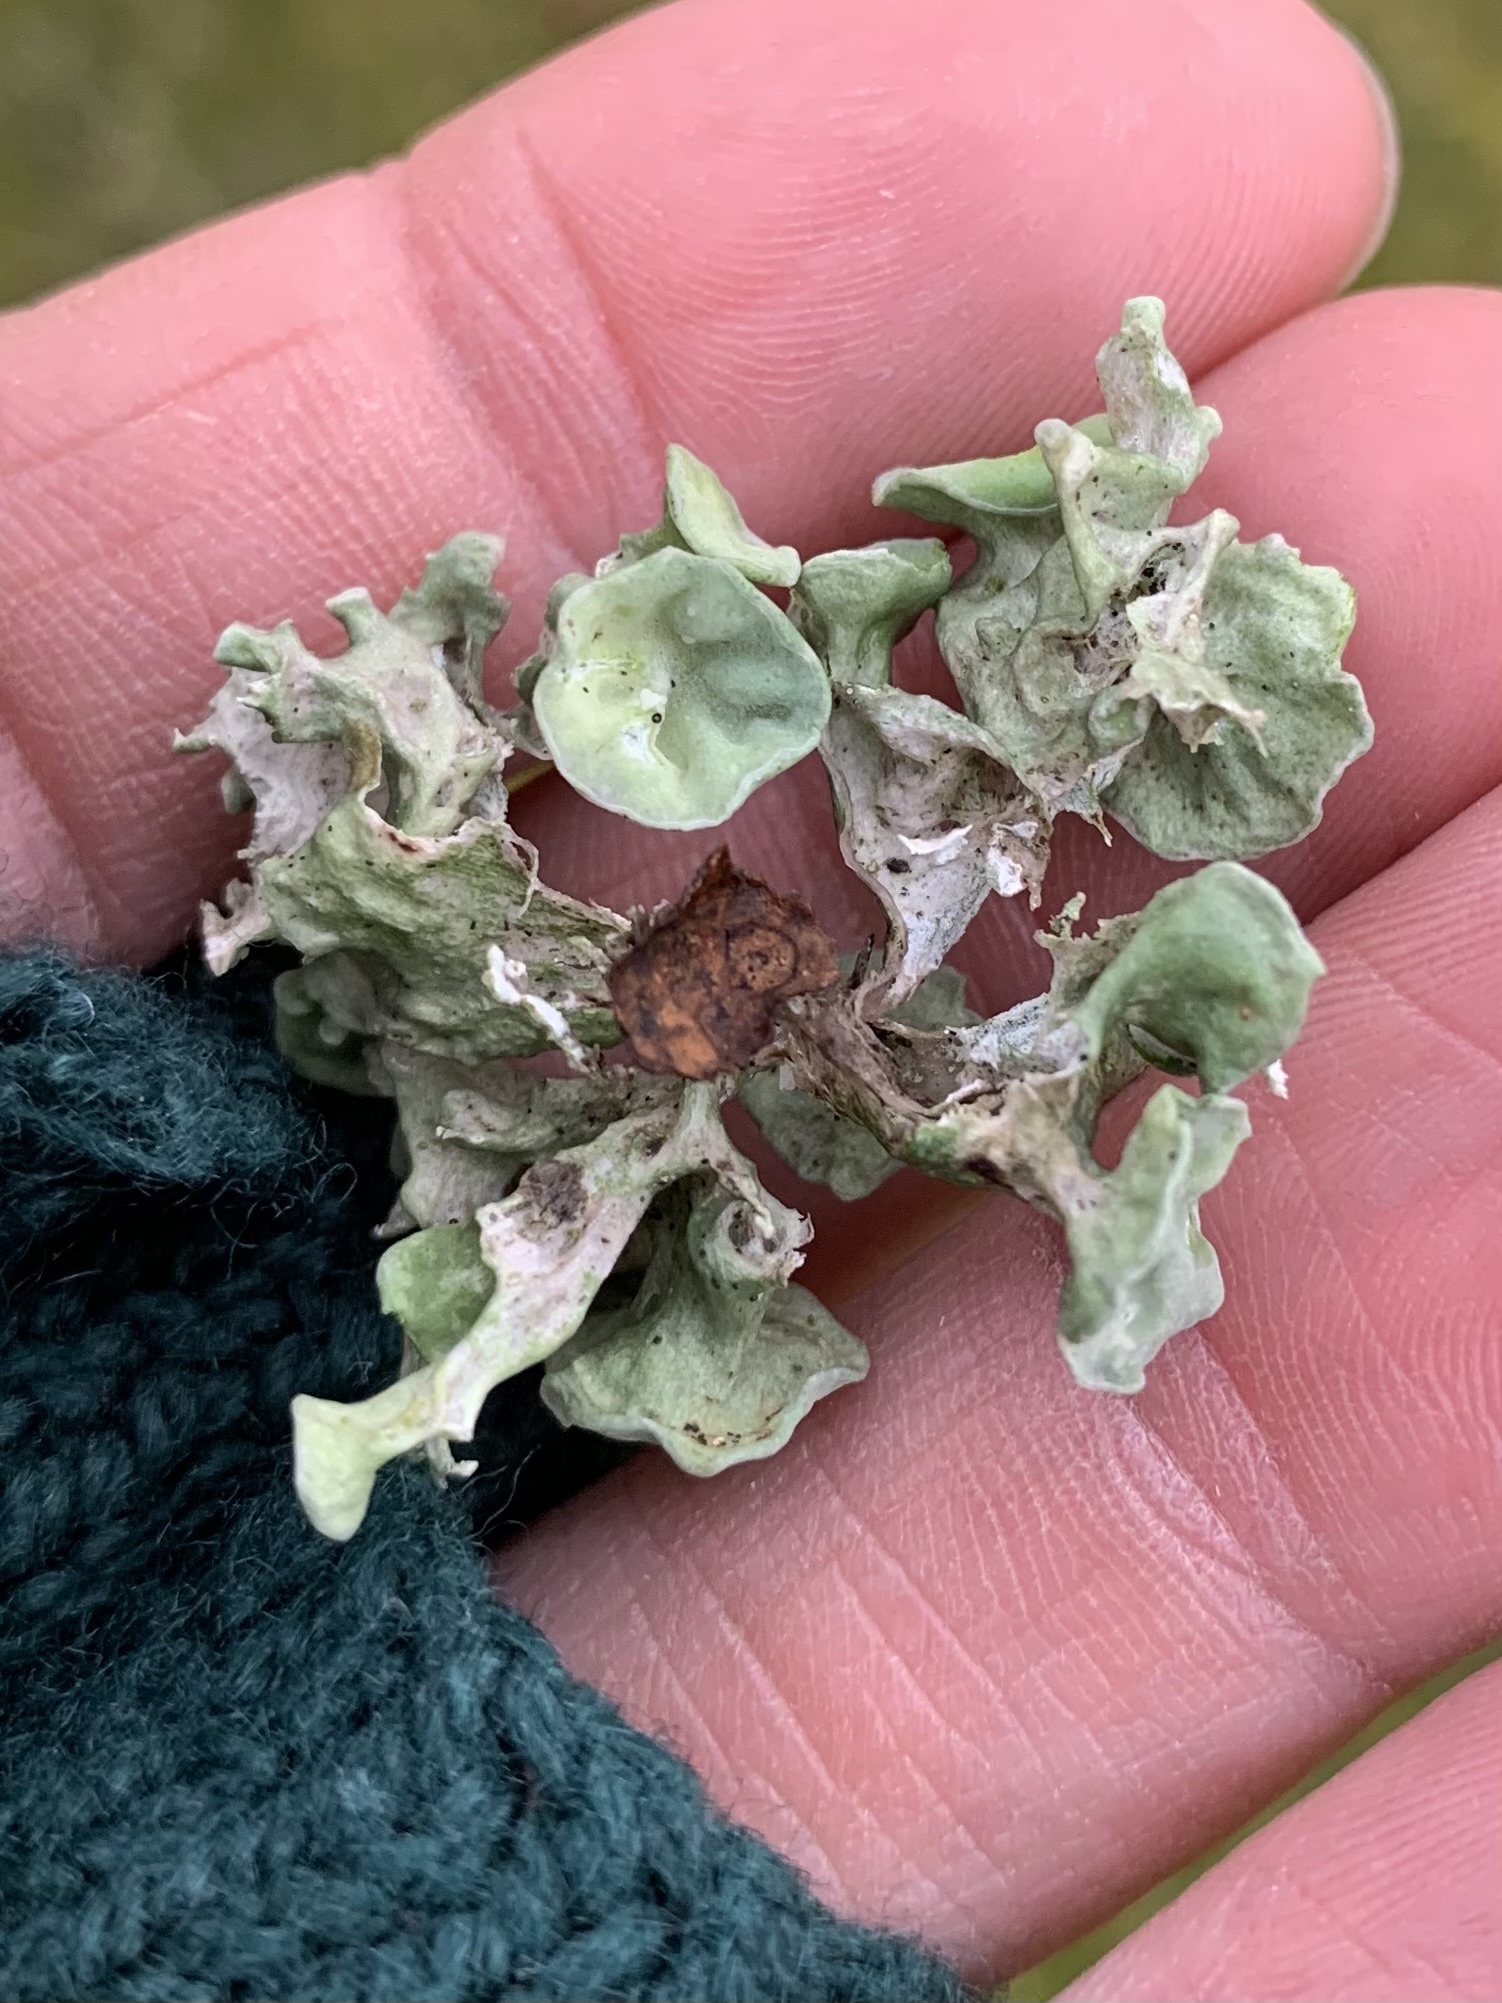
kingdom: Fungi
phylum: Ascomycota
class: Lecanoromycetes
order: Lecanorales
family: Ramalinaceae
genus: Ramalina
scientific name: Ramalina fastigiata
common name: Dotted ribbon lichen
